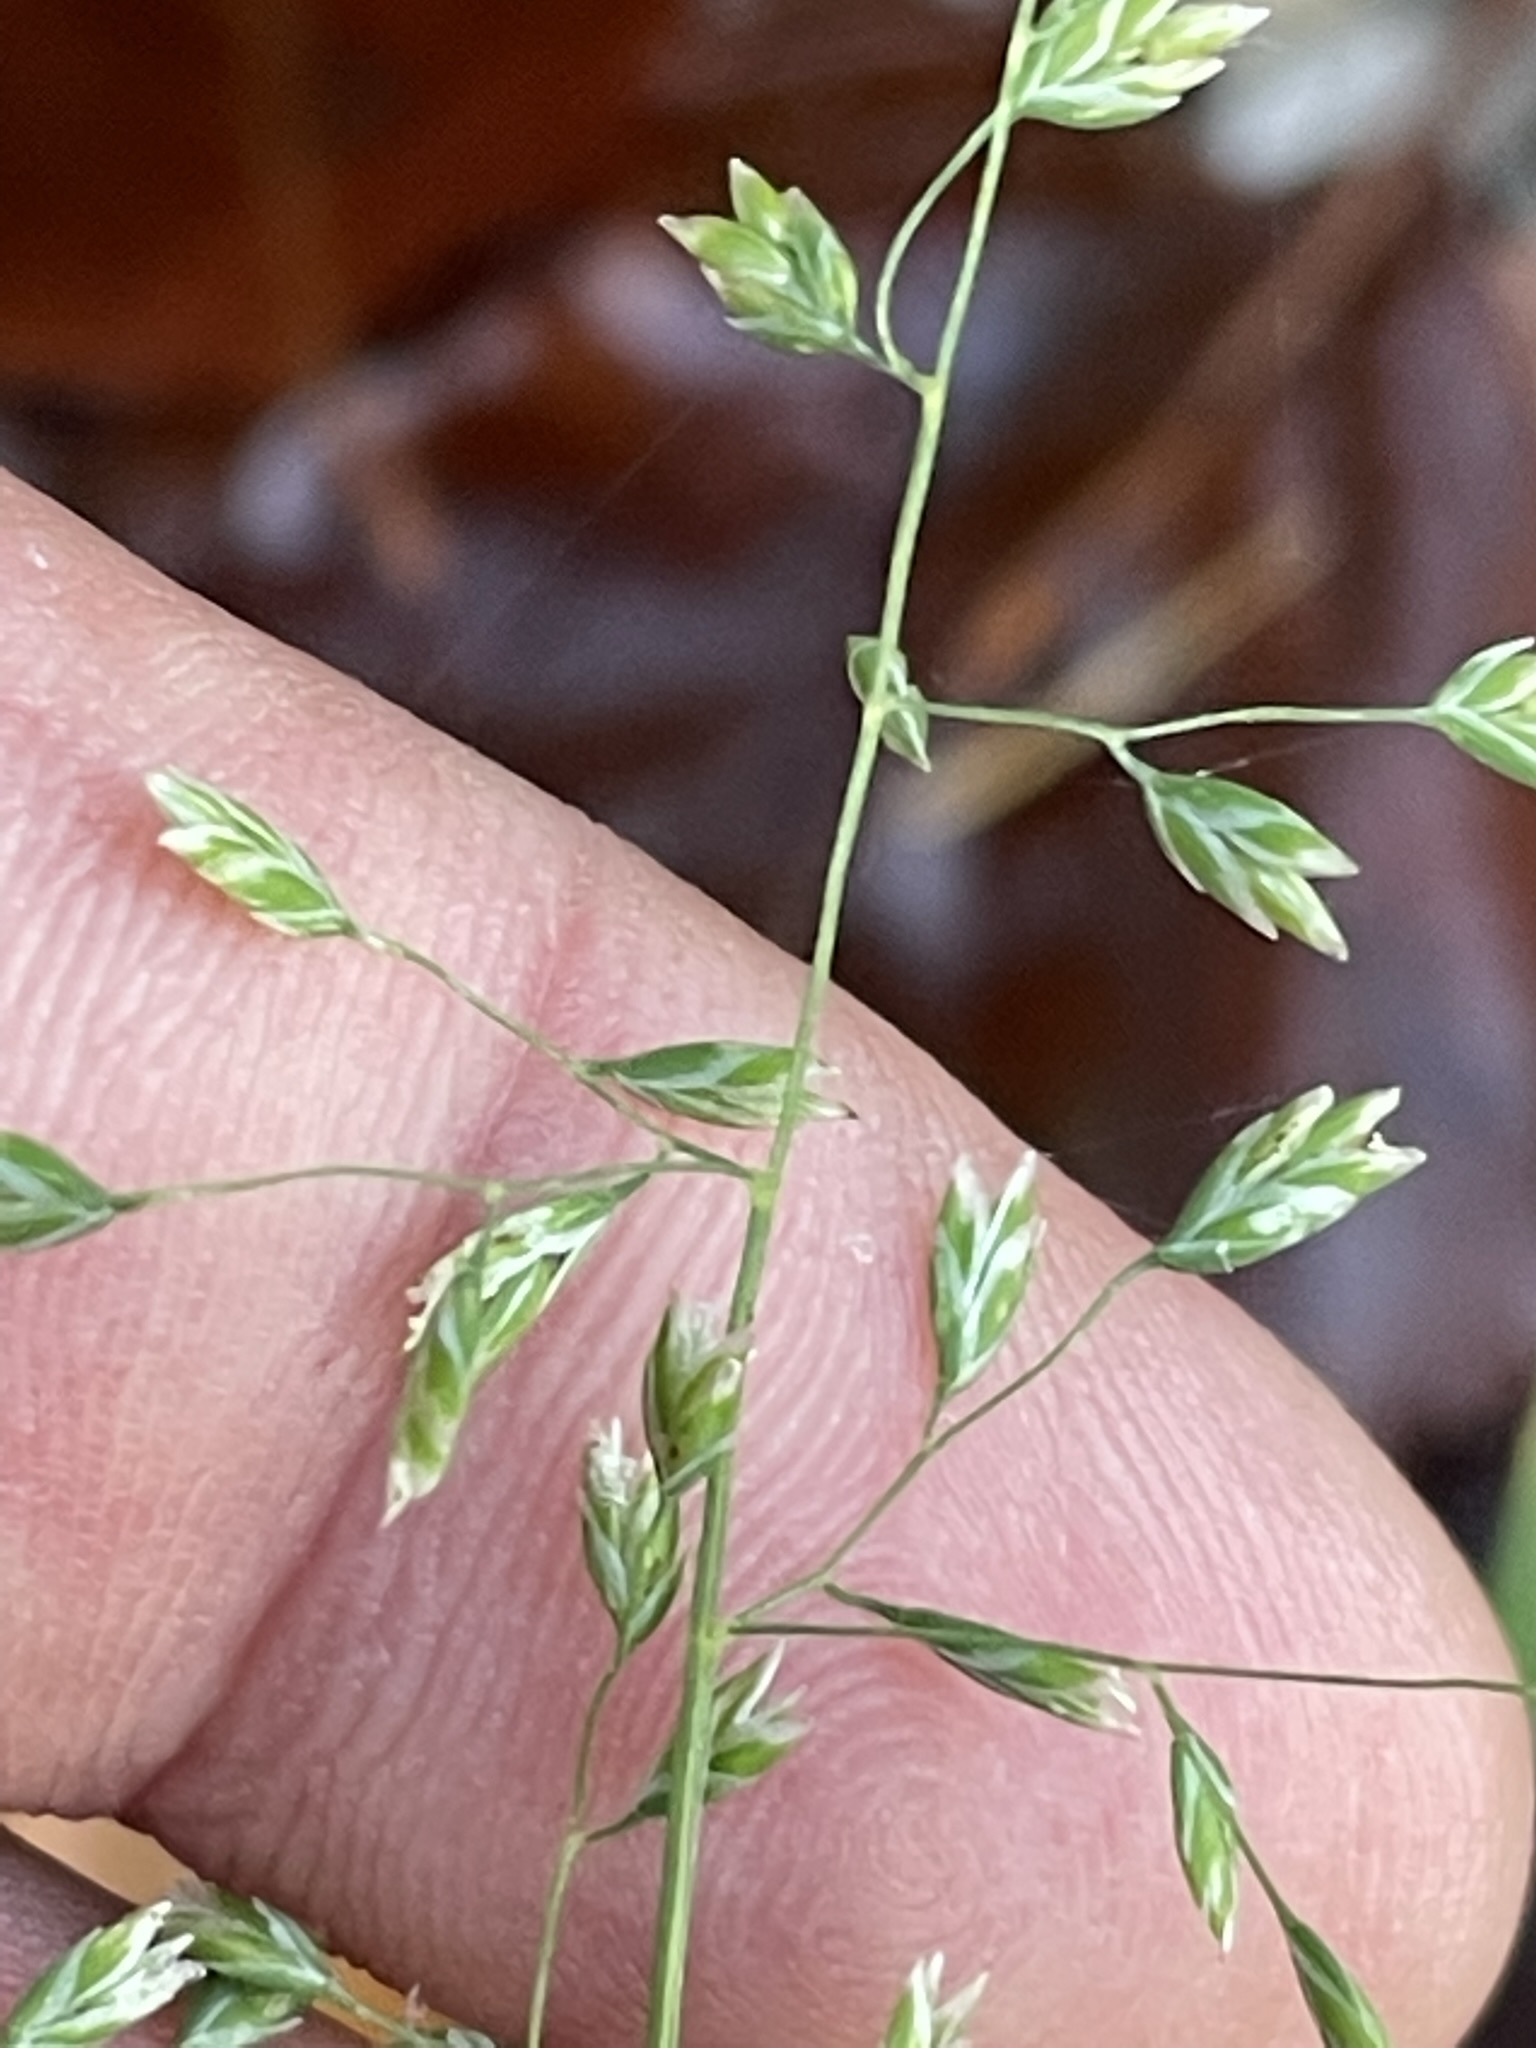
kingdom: Plantae
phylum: Tracheophyta
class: Liliopsida
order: Poales
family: Poaceae
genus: Poa
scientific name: Poa annua
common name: Annual bluegrass
